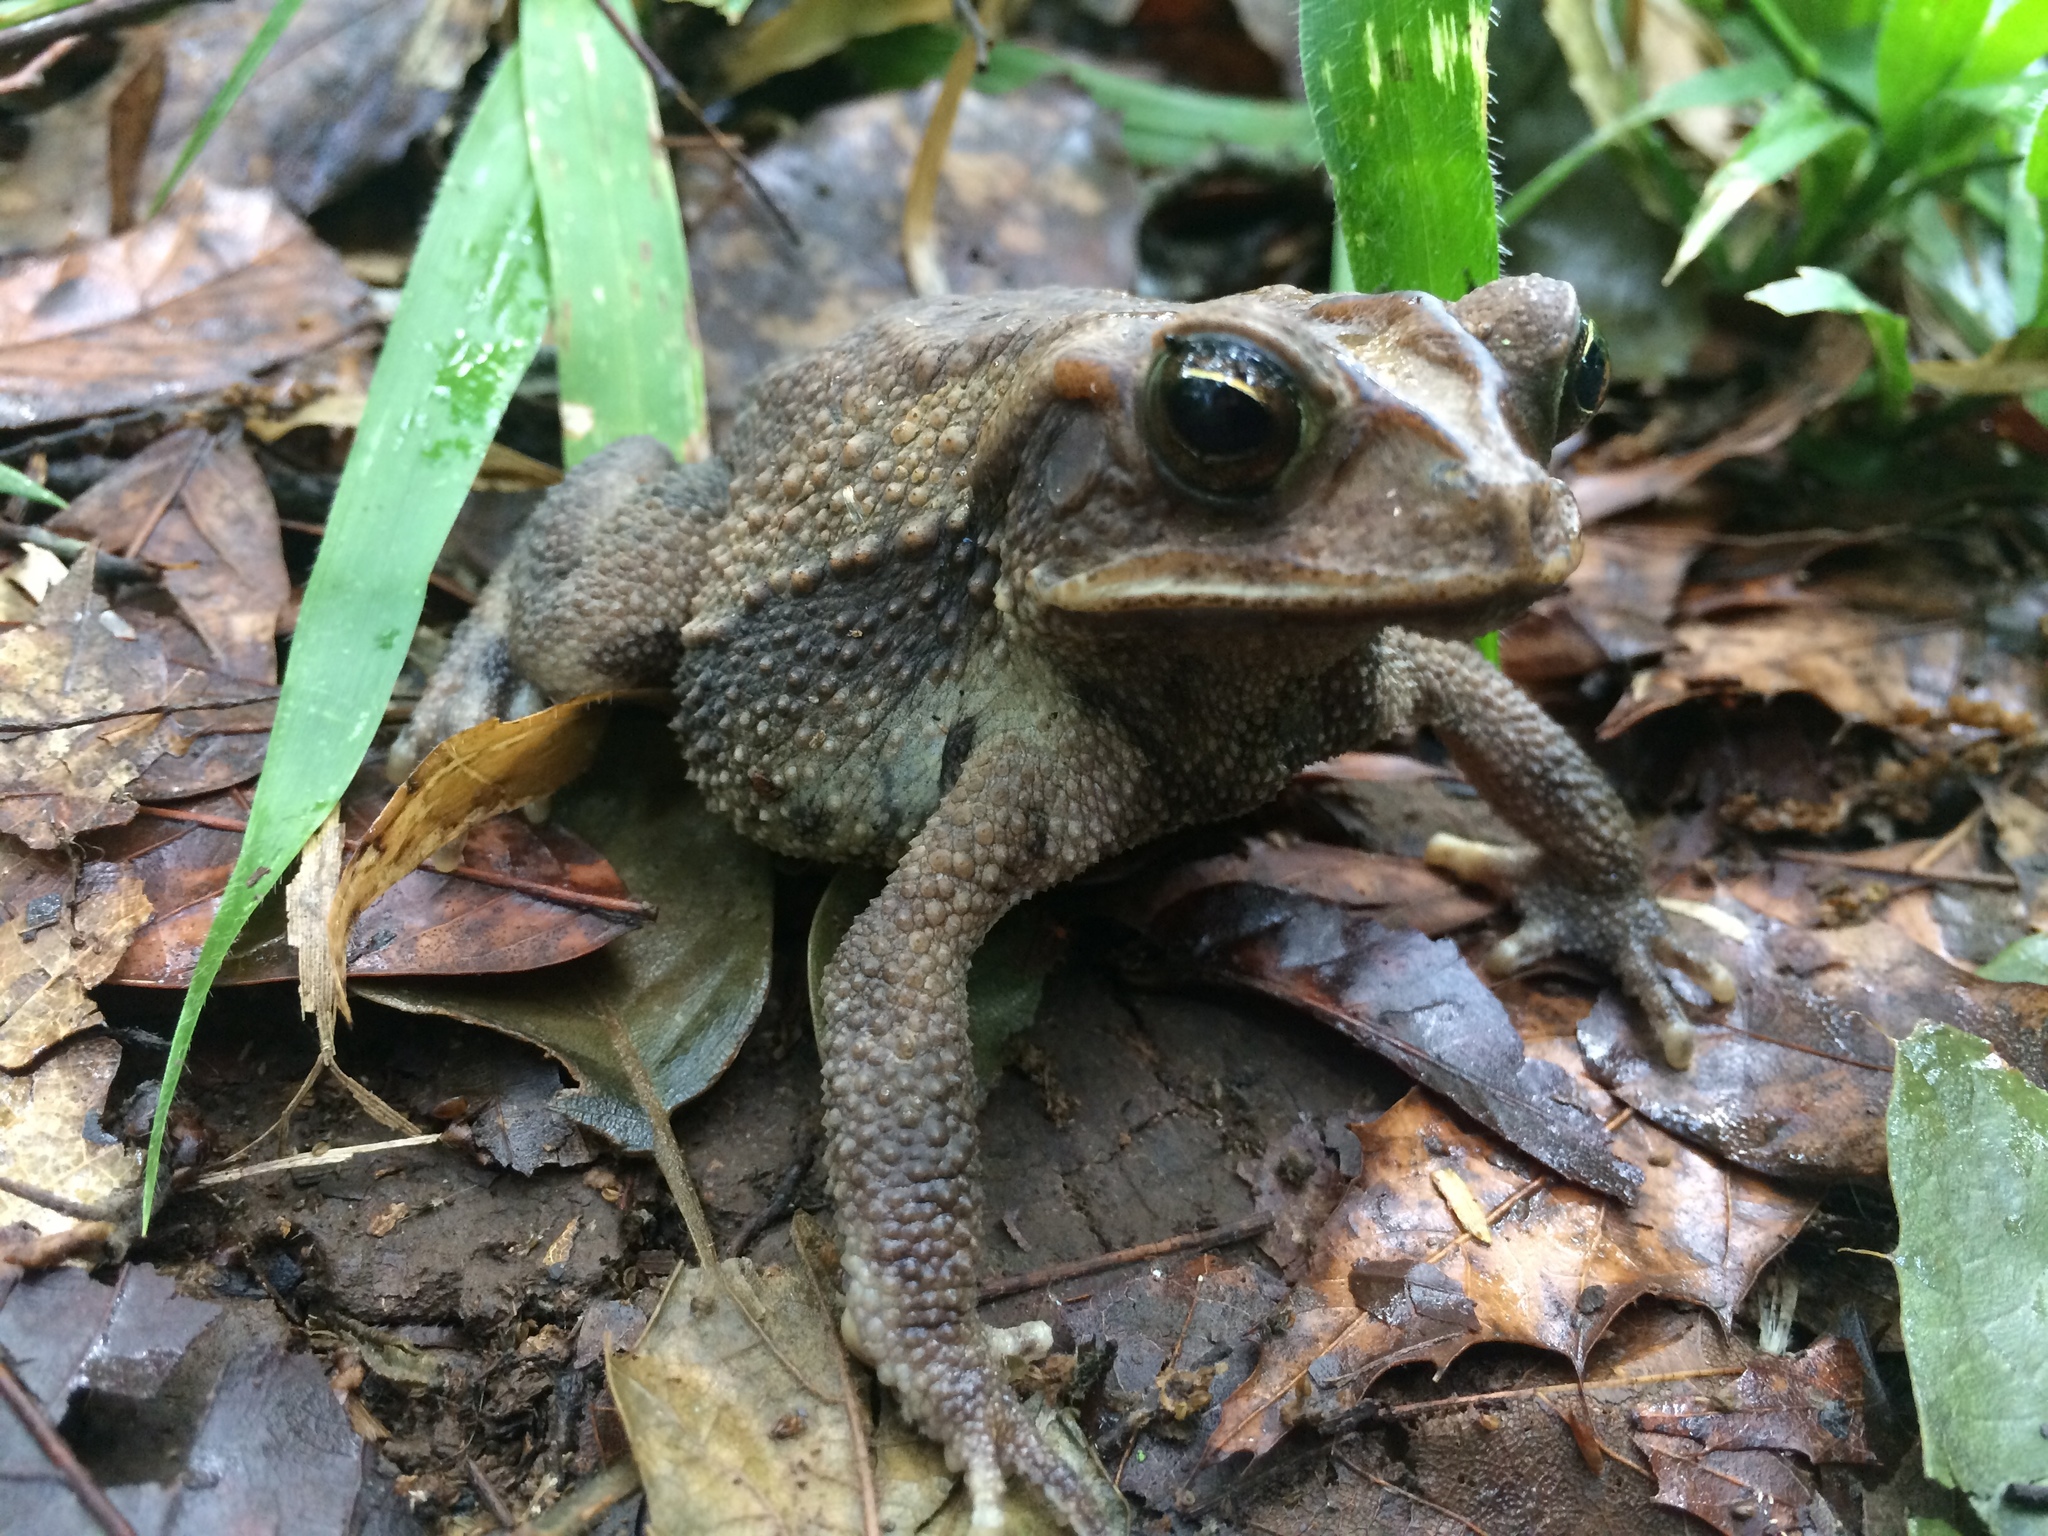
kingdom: Animalia
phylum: Chordata
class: Amphibia
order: Anura
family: Bufonidae
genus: Incilius
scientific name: Incilius valliceps
